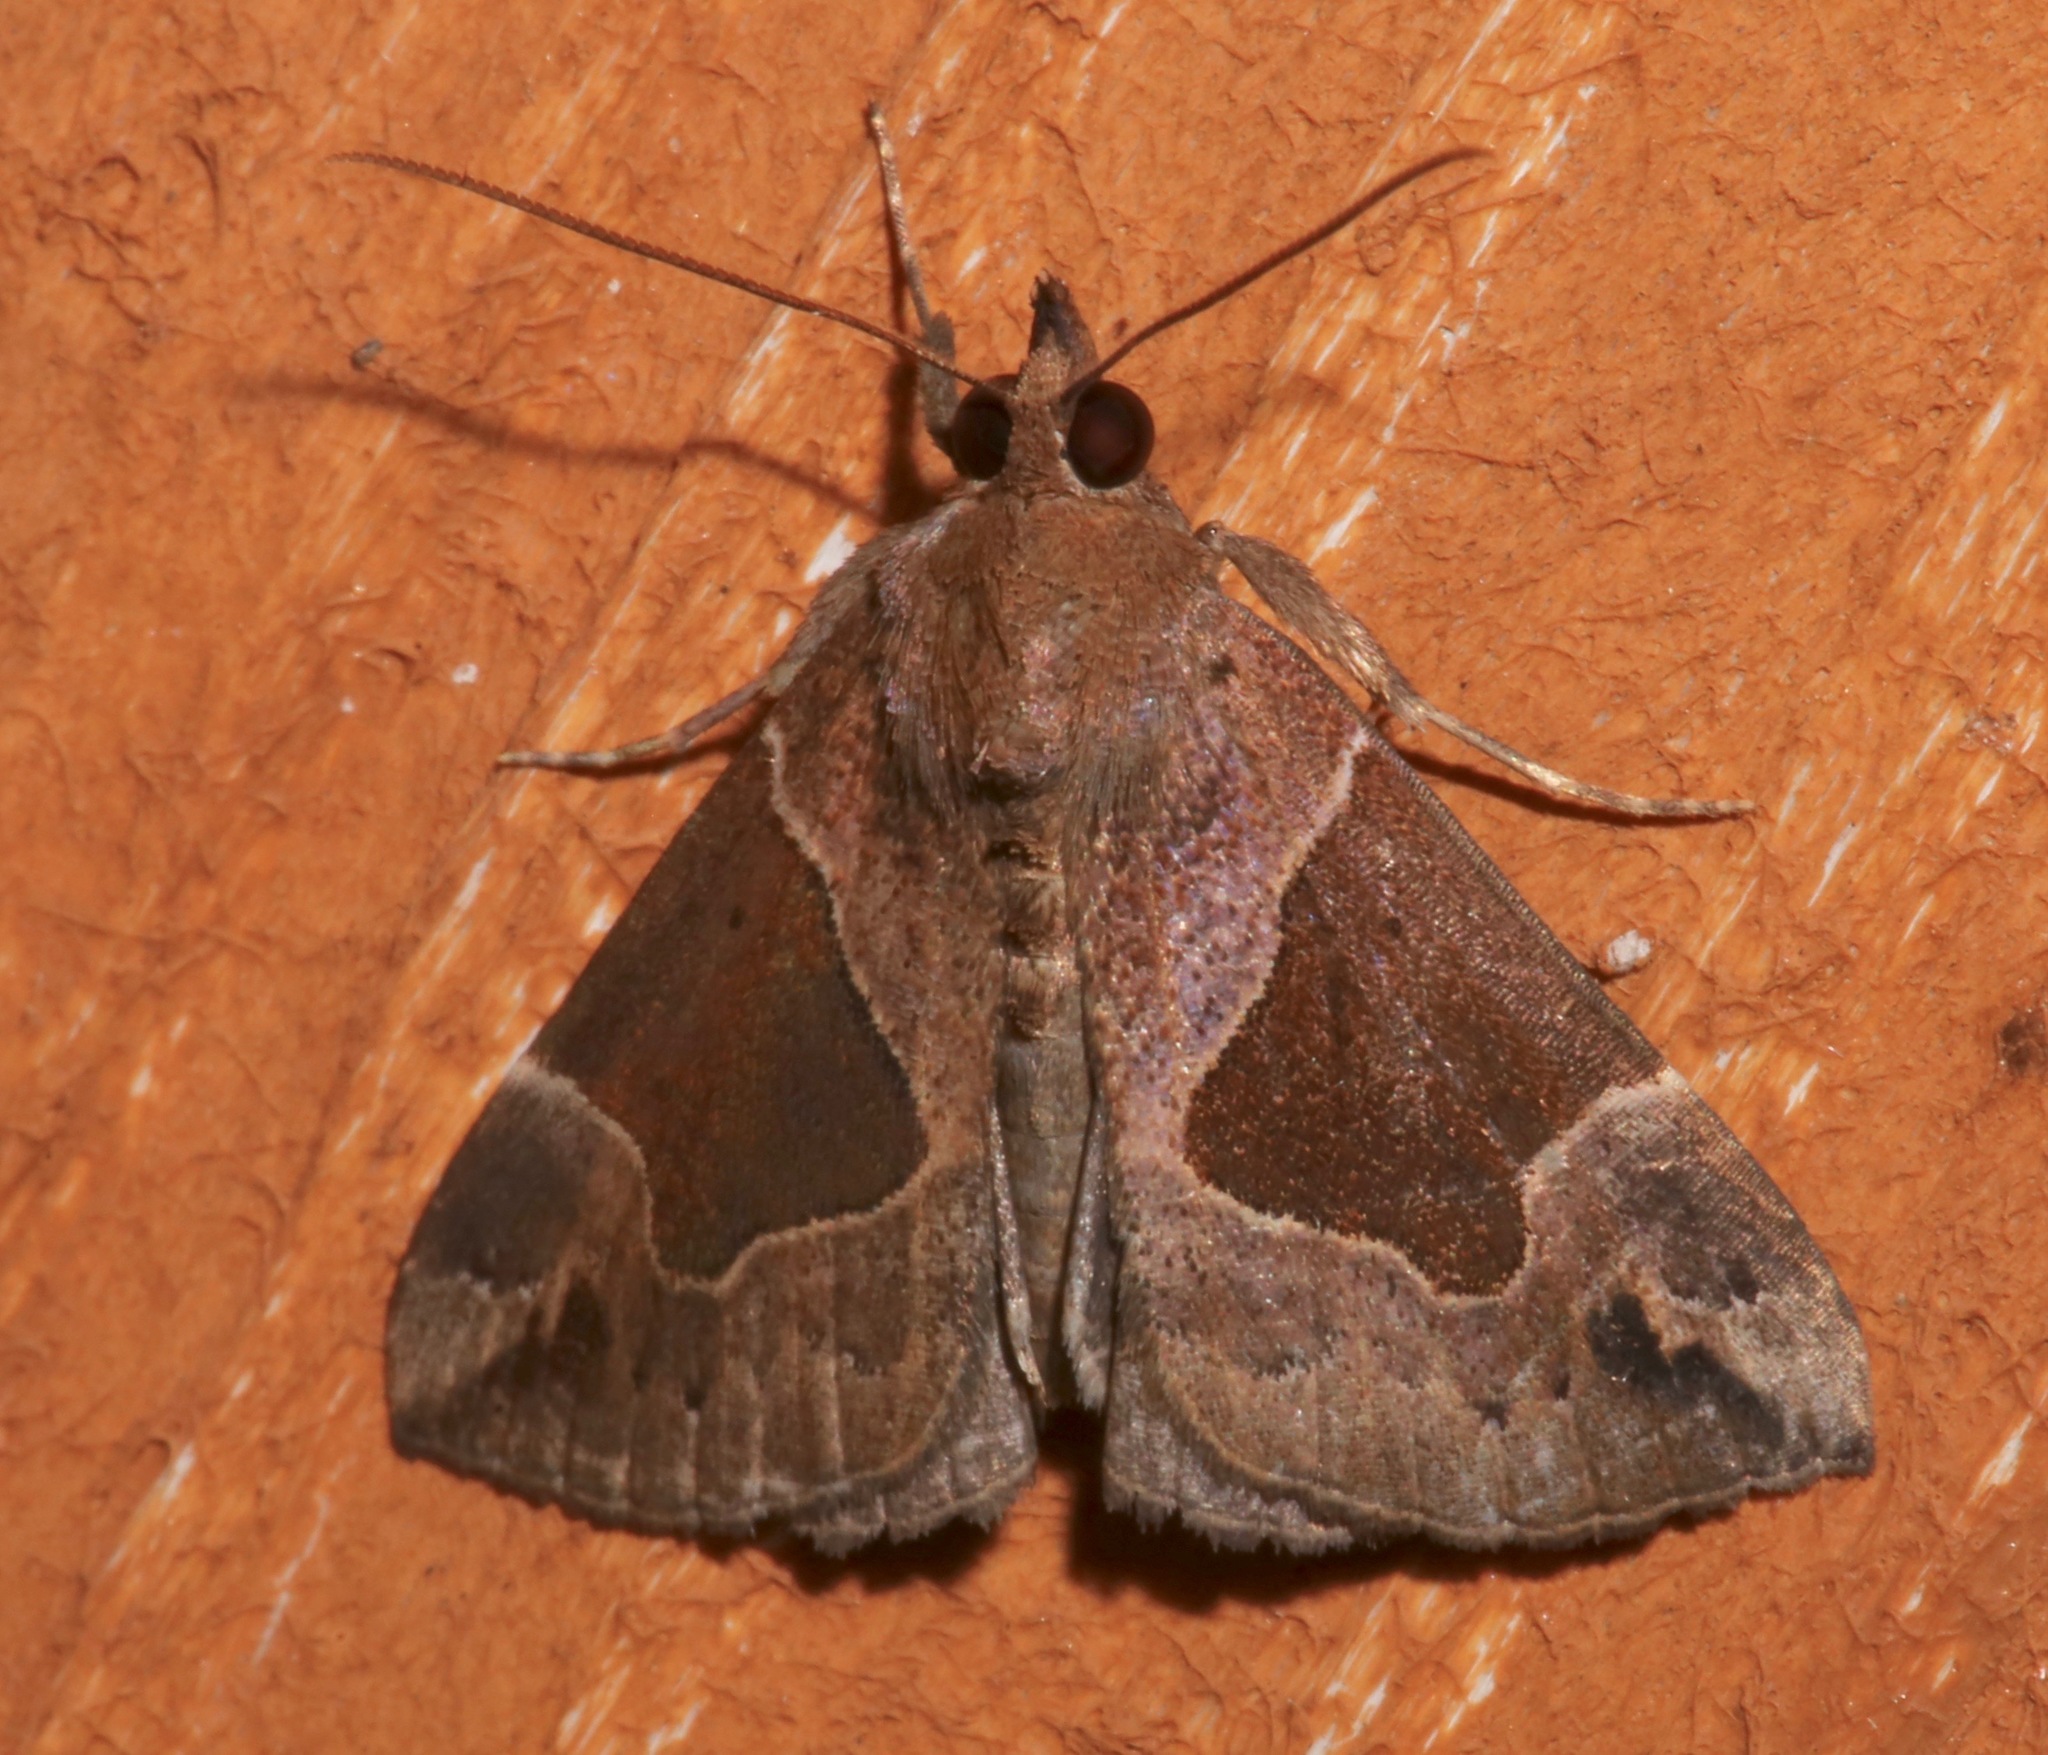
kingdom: Animalia
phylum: Arthropoda
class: Insecta
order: Lepidoptera
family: Erebidae
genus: Hypena
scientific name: Hypena manalis
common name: Flowing-line bomolocha moth
